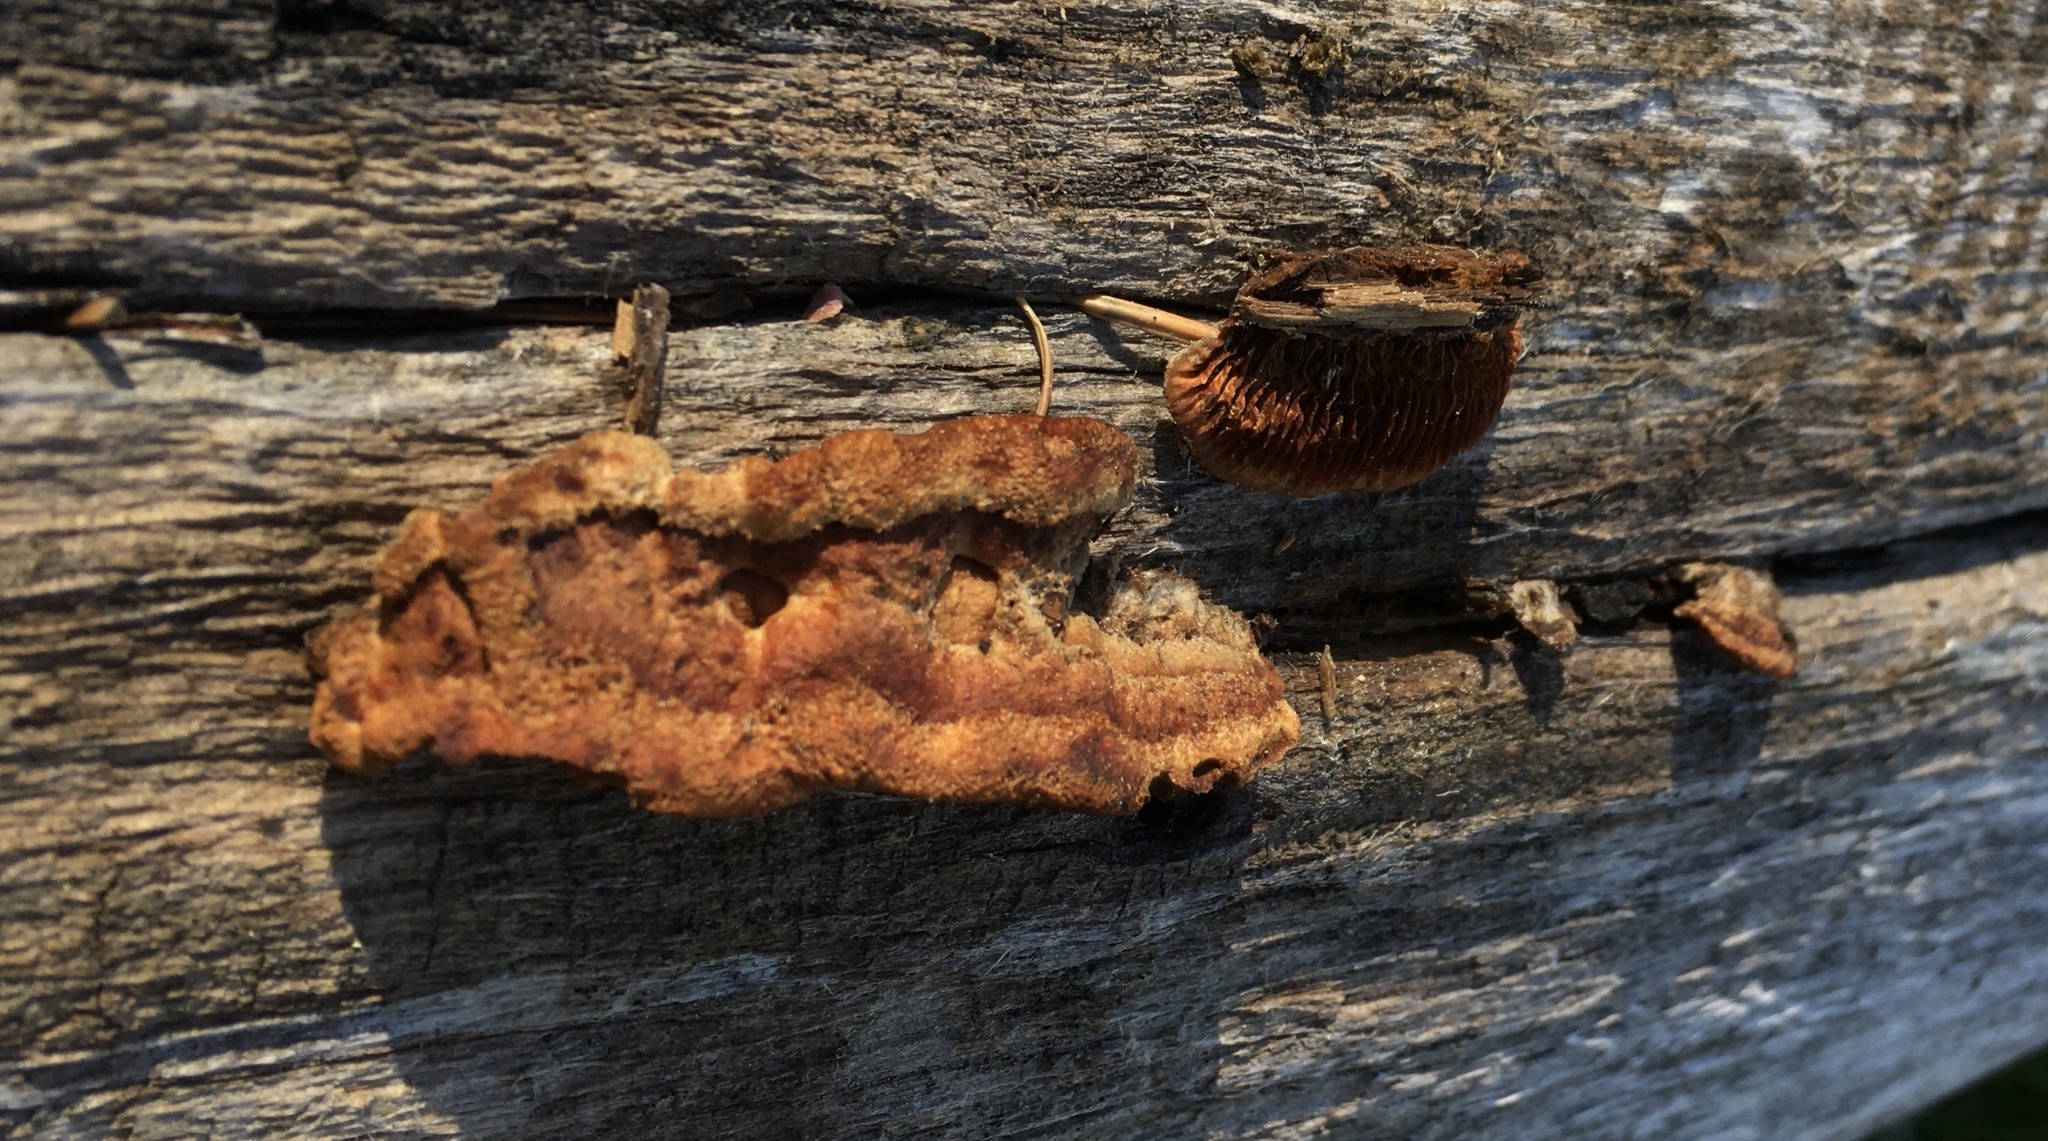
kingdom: Fungi
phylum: Basidiomycota
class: Agaricomycetes
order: Gloeophyllales
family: Gloeophyllaceae
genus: Gloeophyllum
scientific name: Gloeophyllum sepiarium
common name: Conifer mazegill
